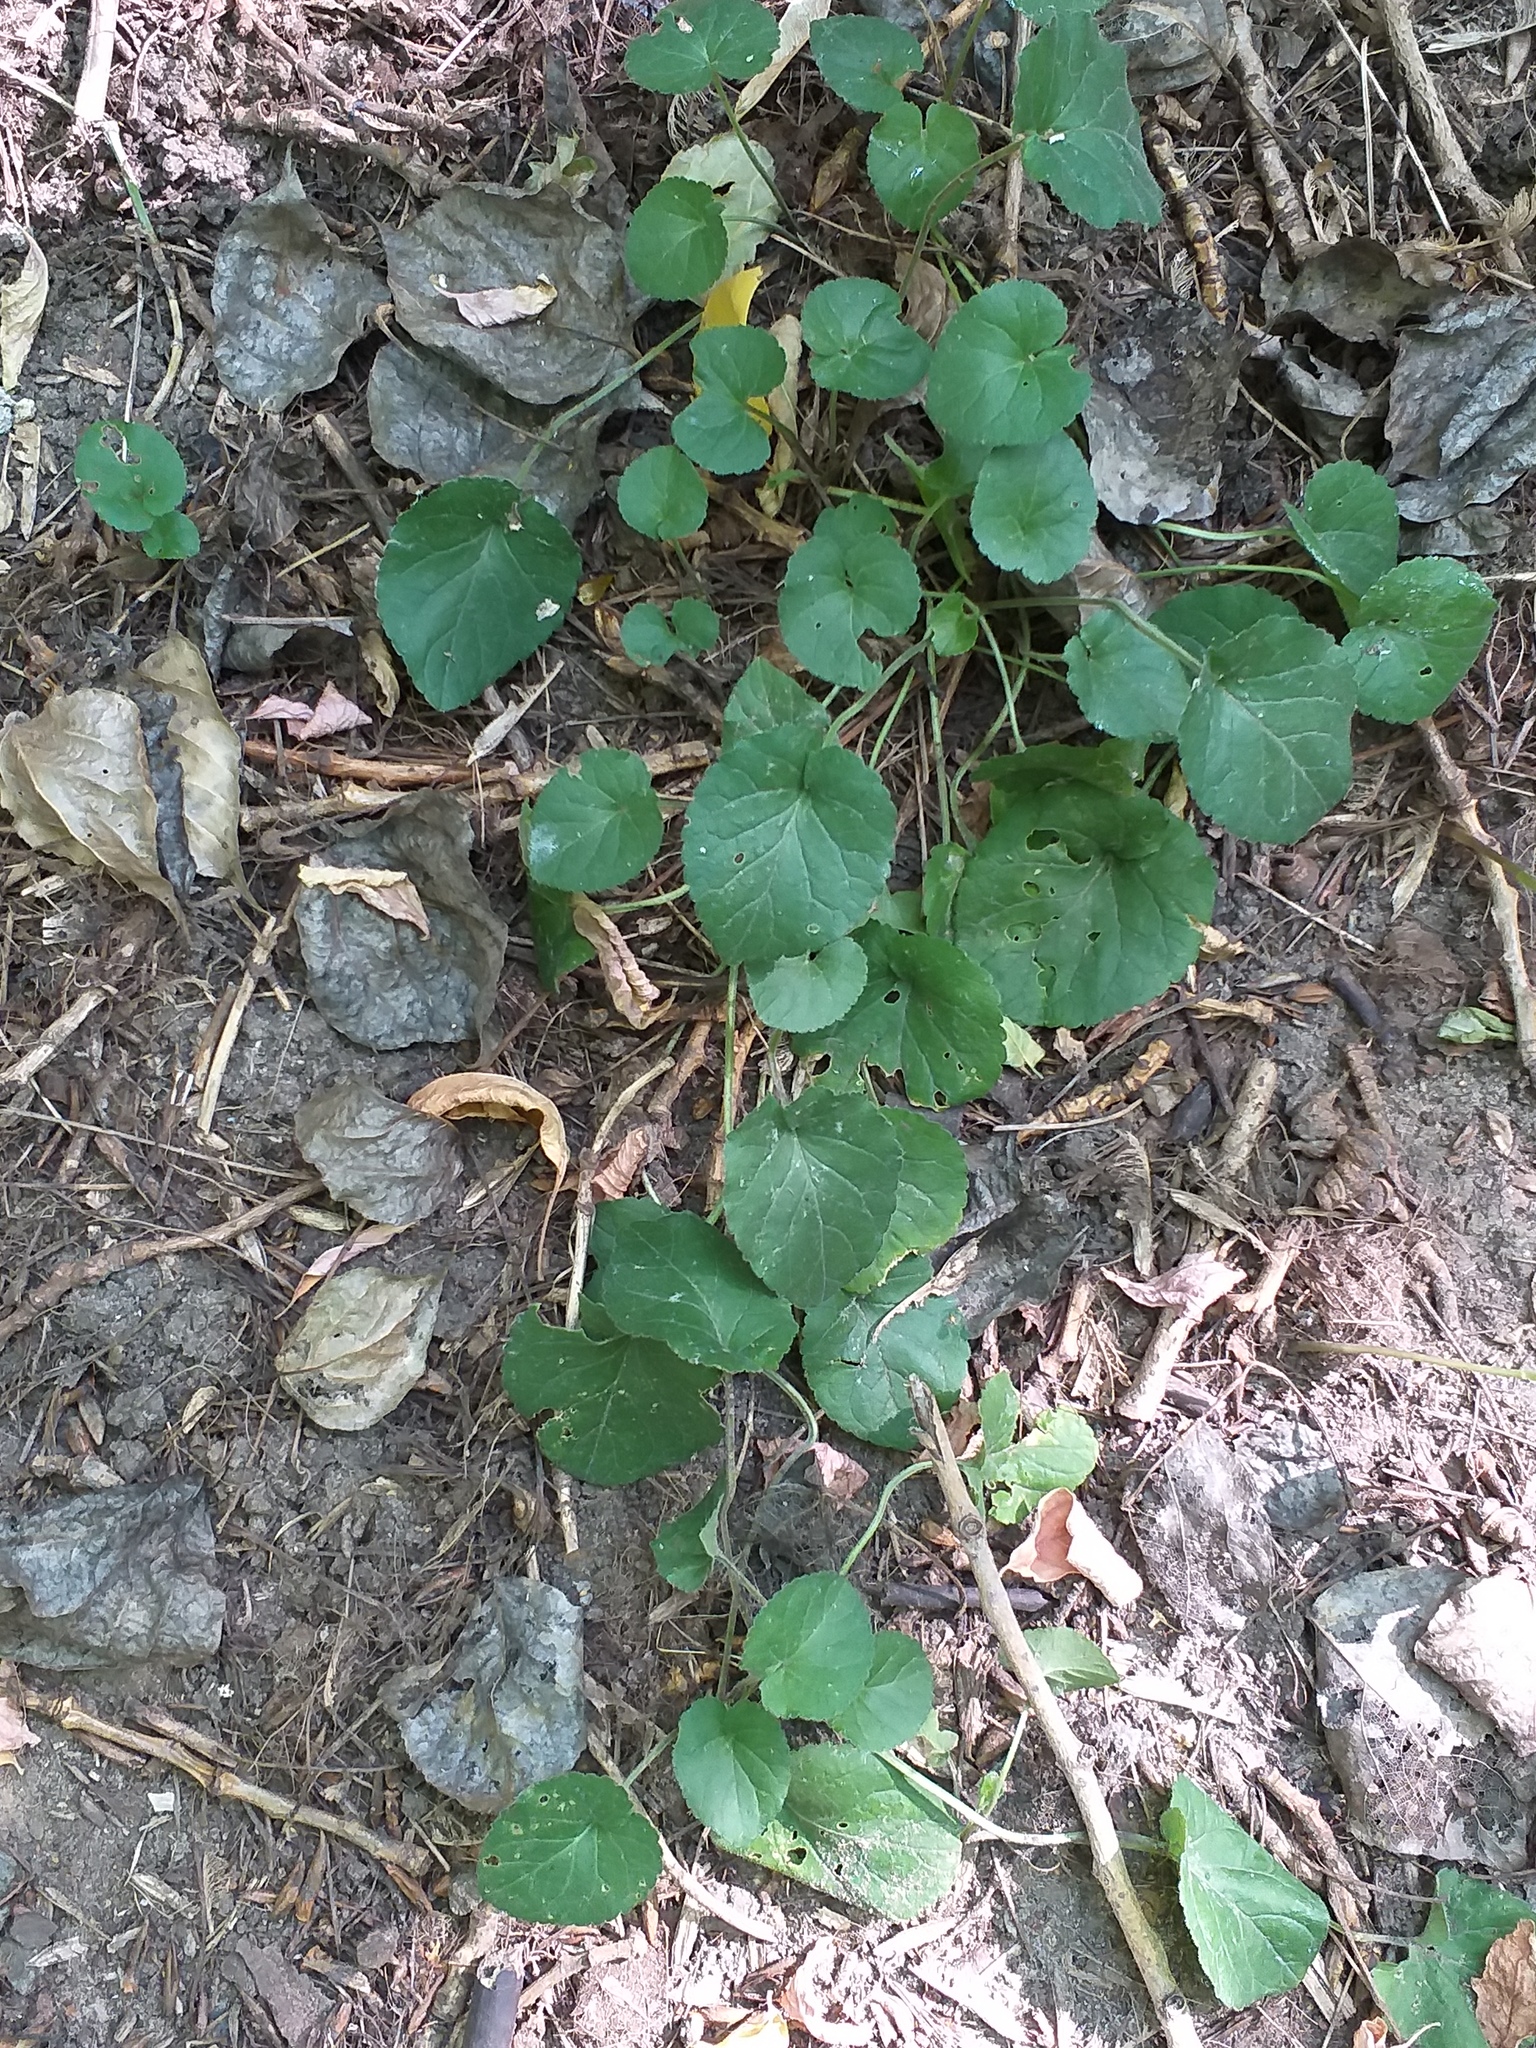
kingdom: Plantae
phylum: Tracheophyta
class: Magnoliopsida
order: Malpighiales
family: Violaceae
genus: Viola
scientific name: Viola odorata
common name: Sweet violet
